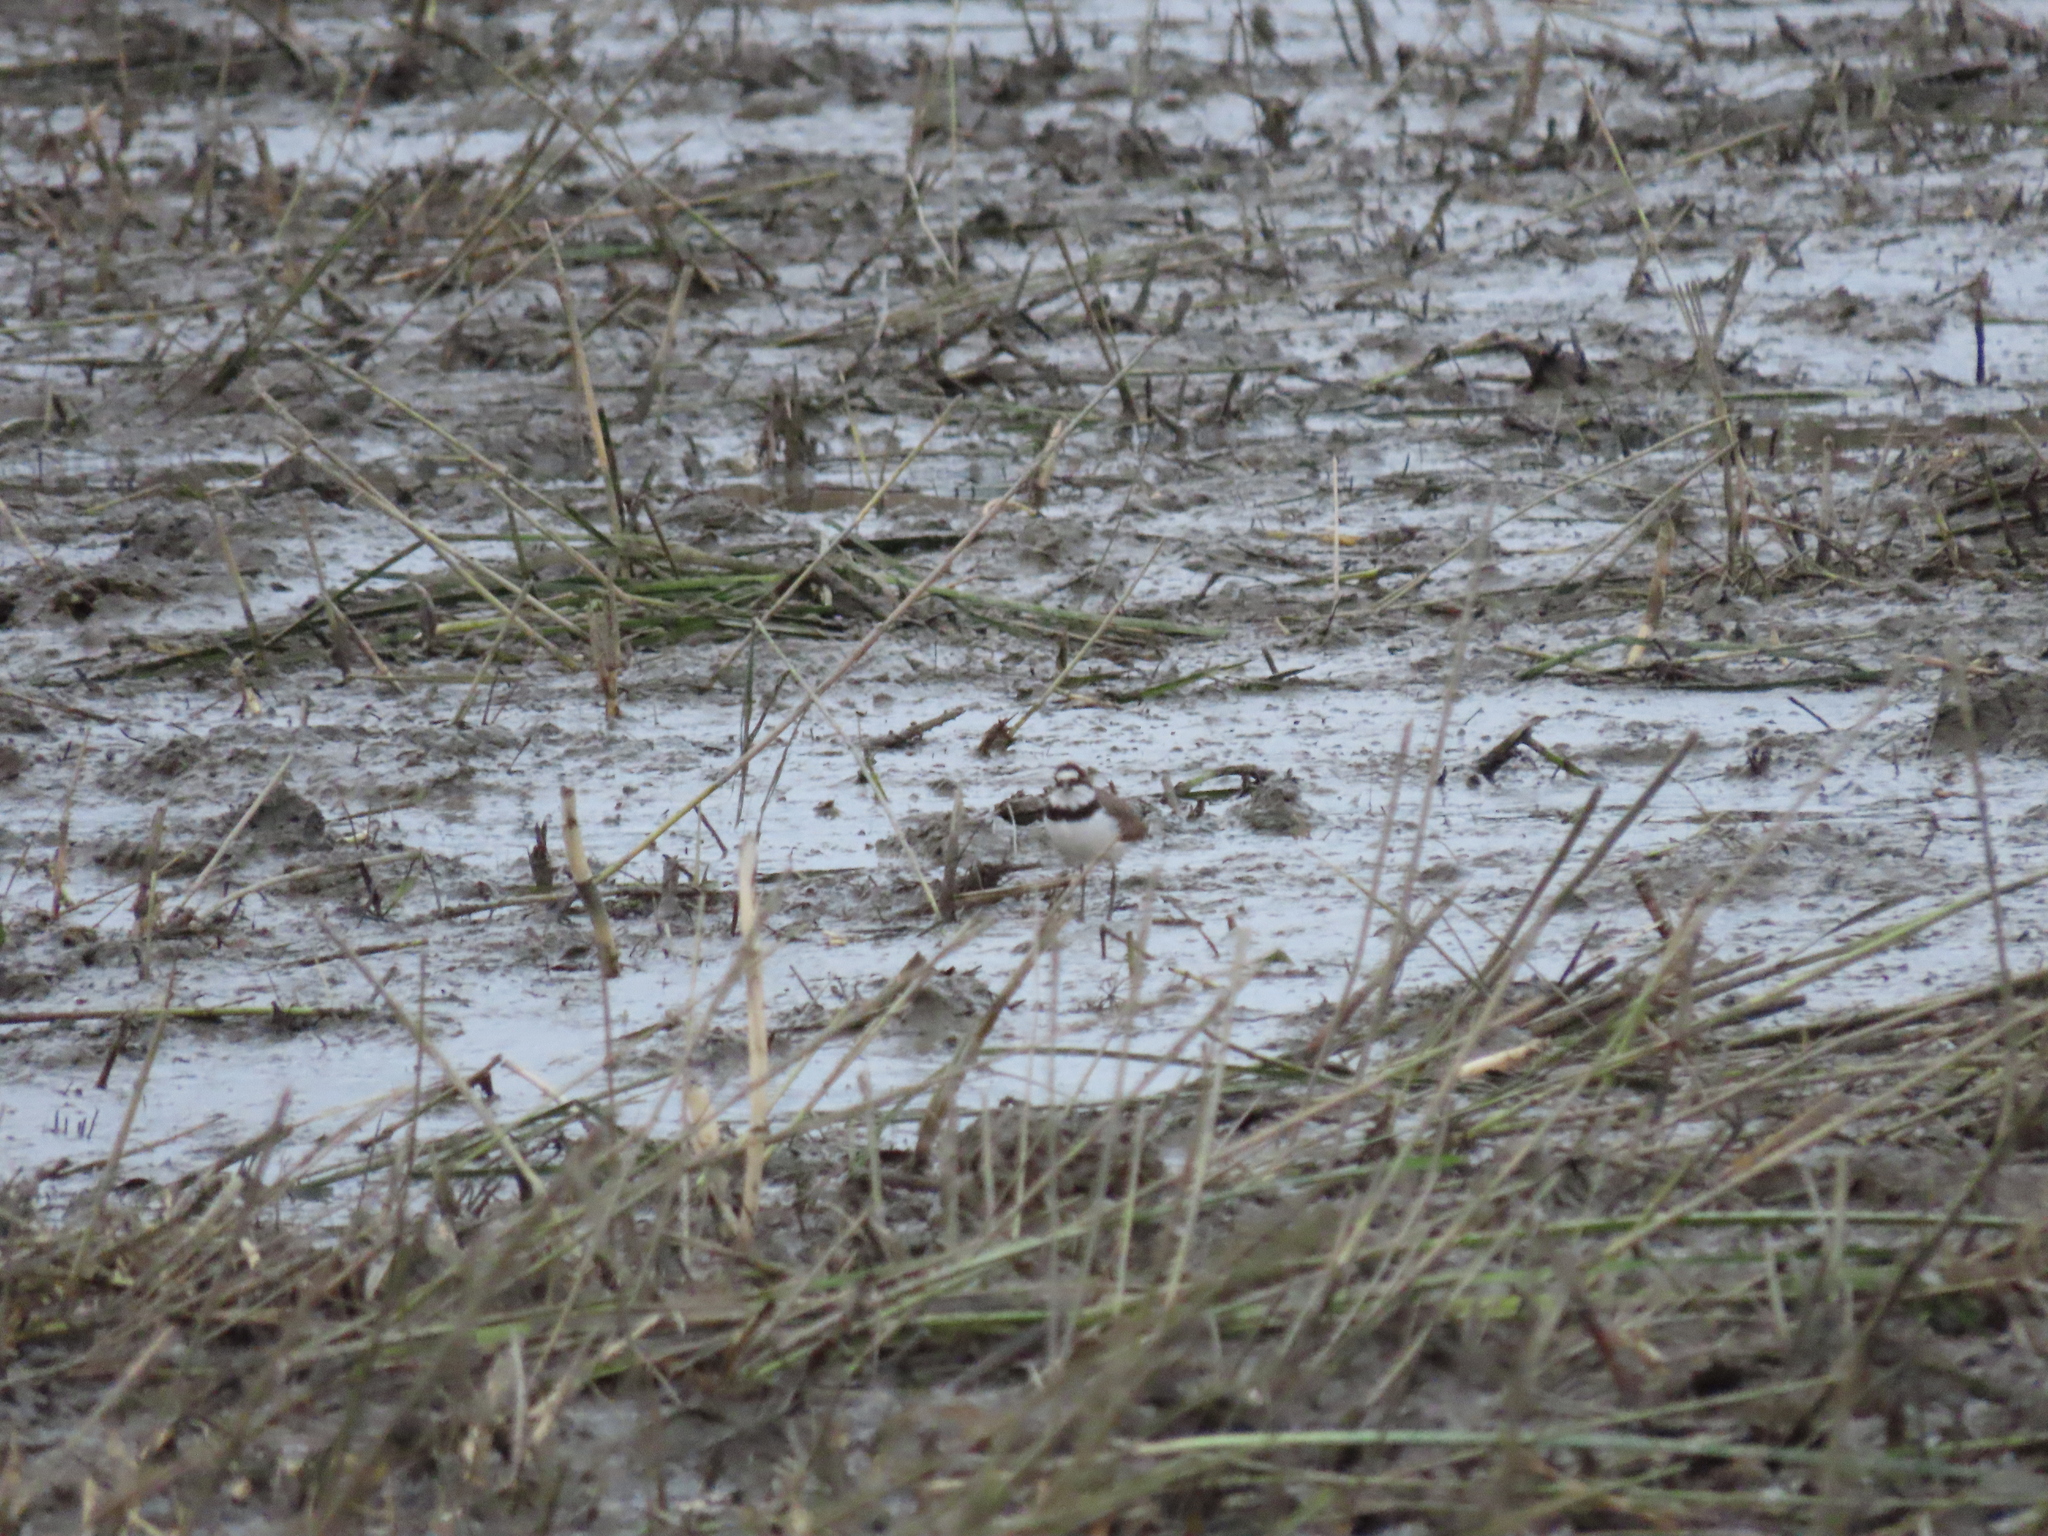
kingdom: Animalia
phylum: Chordata
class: Aves
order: Charadriiformes
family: Charadriidae
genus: Charadrius
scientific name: Charadrius dubius
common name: Little ringed plover
